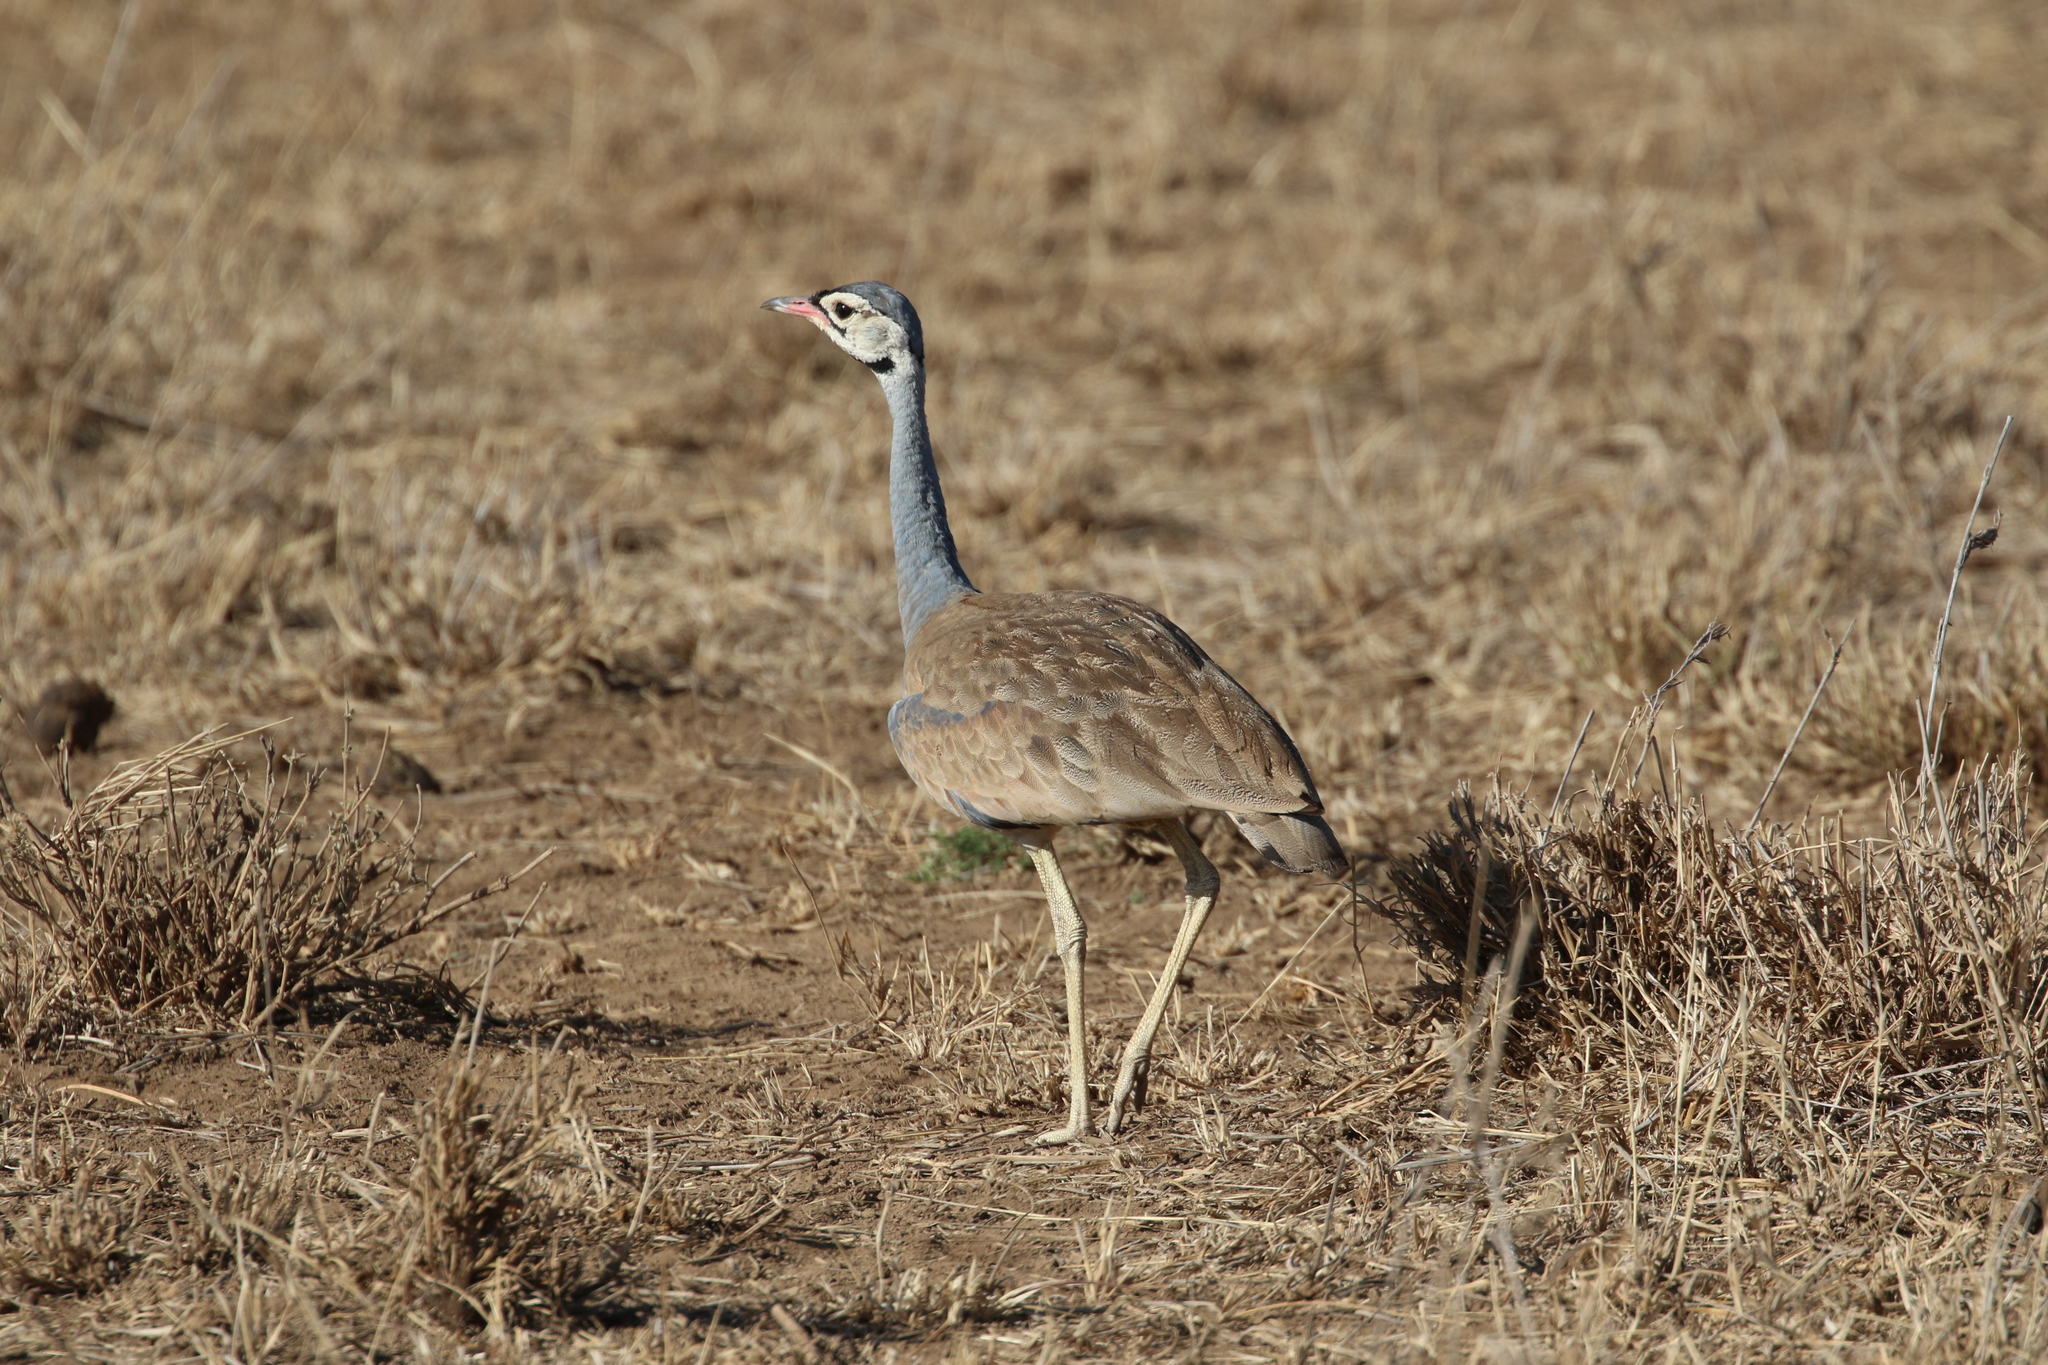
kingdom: Animalia
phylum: Chordata
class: Aves
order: Otidiformes
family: Otididae
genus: Eupodotis
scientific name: Eupodotis senegalensis
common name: White-bellied bustard
